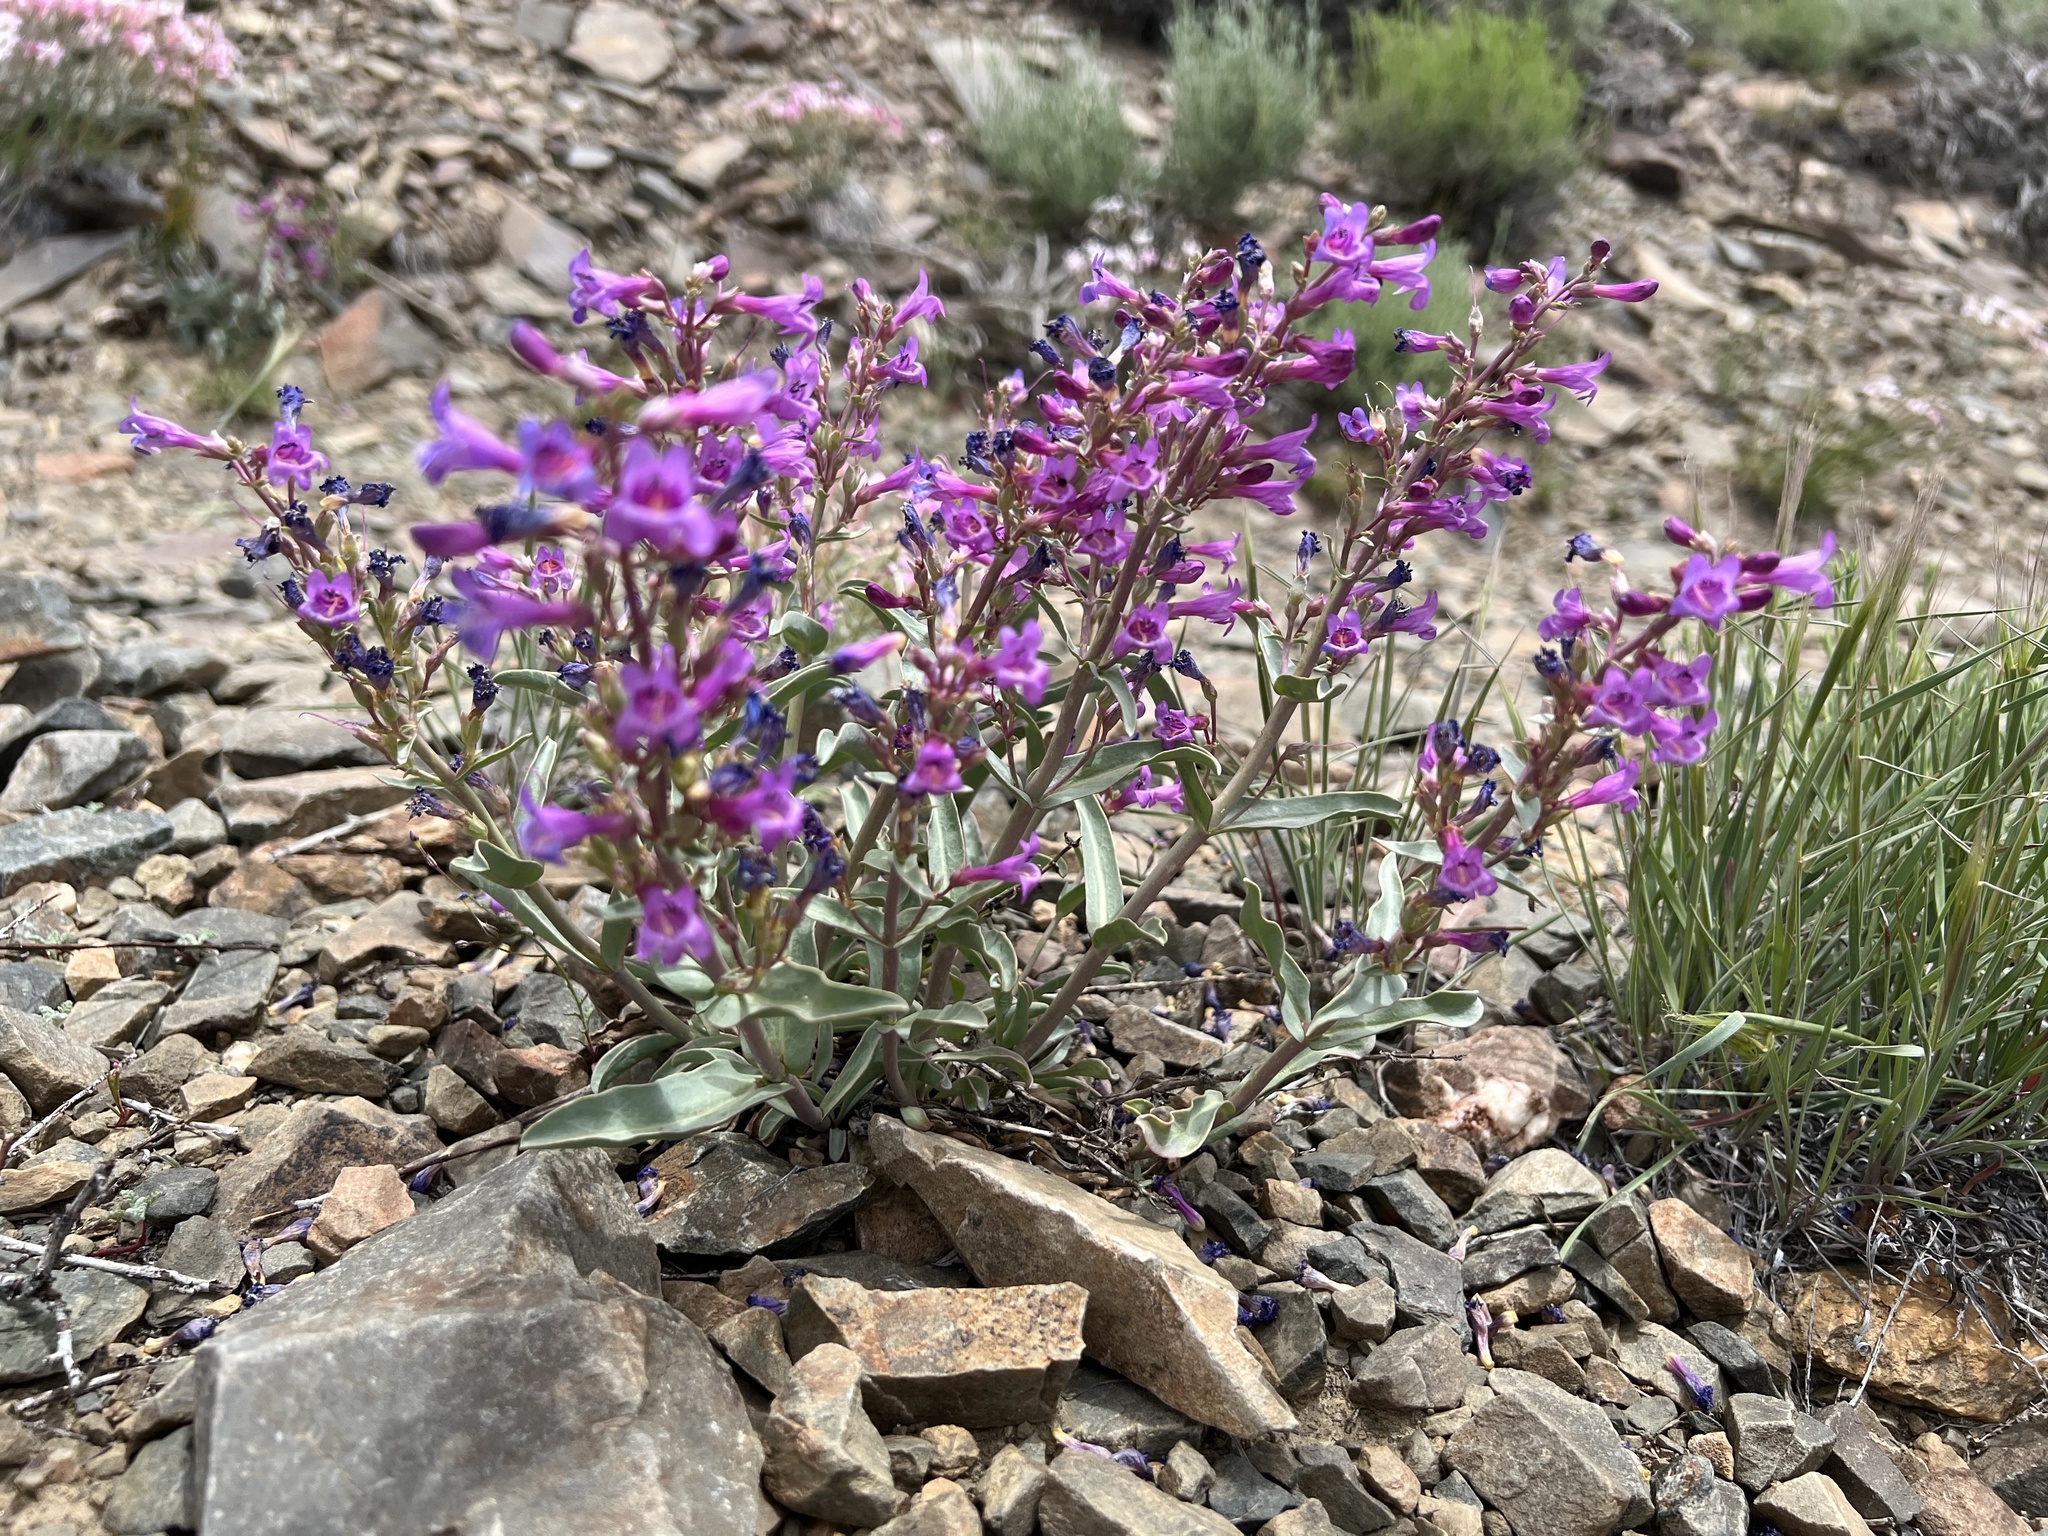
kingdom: Plantae
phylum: Tracheophyta
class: Magnoliopsida
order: Lamiales
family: Plantaginaceae
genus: Penstemon
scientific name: Penstemon patens
